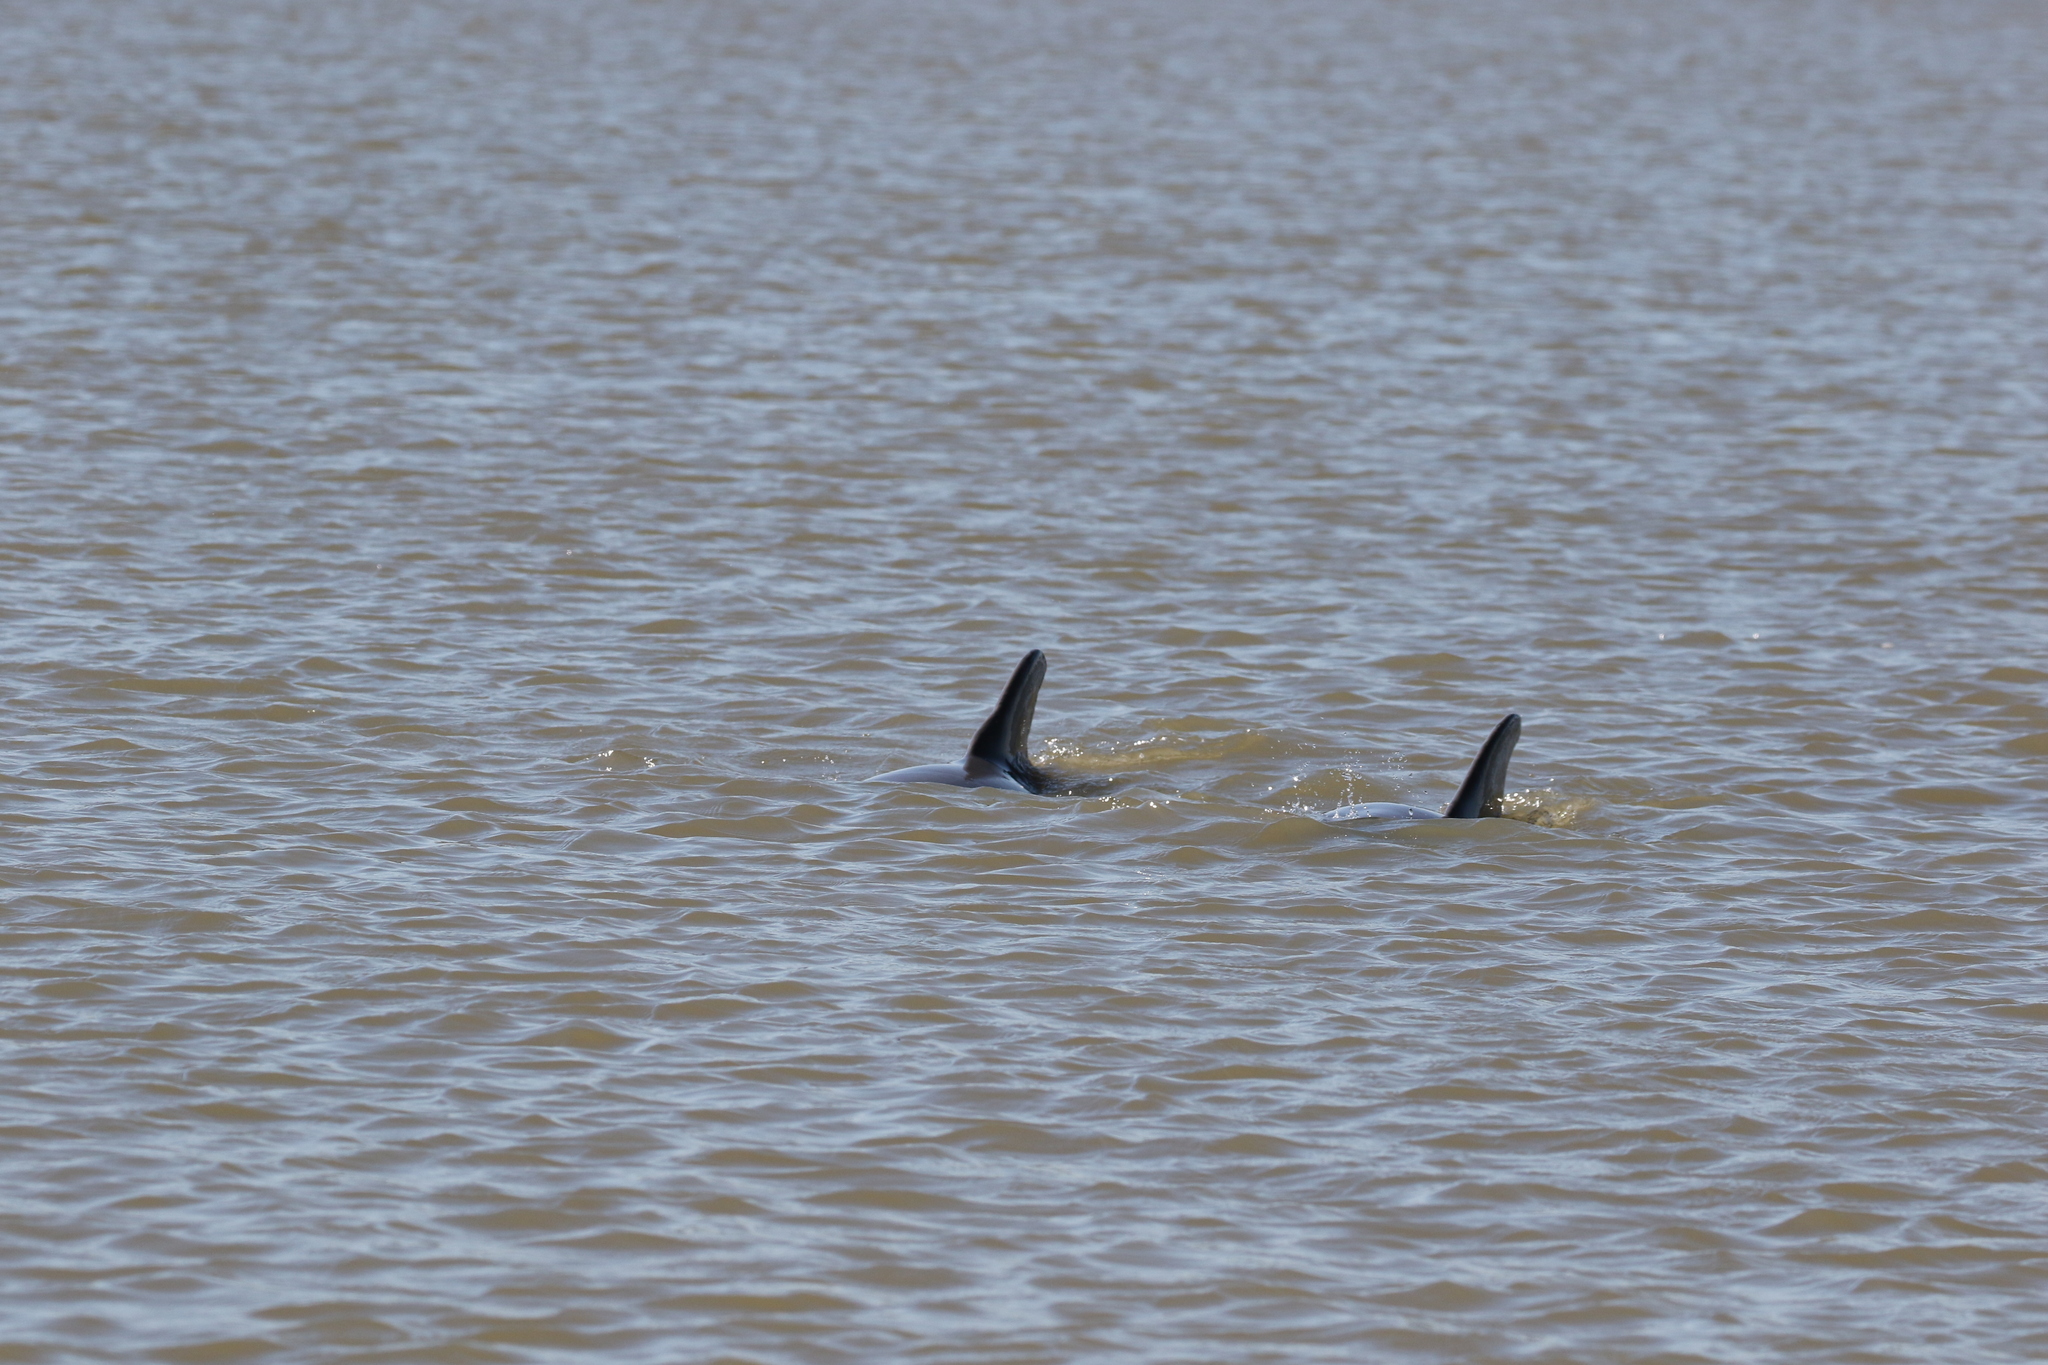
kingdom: Animalia
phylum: Chordata
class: Mammalia
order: Cetacea
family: Delphinidae
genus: Tursiops
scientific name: Tursiops truncatus
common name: Bottlenose dolphin
